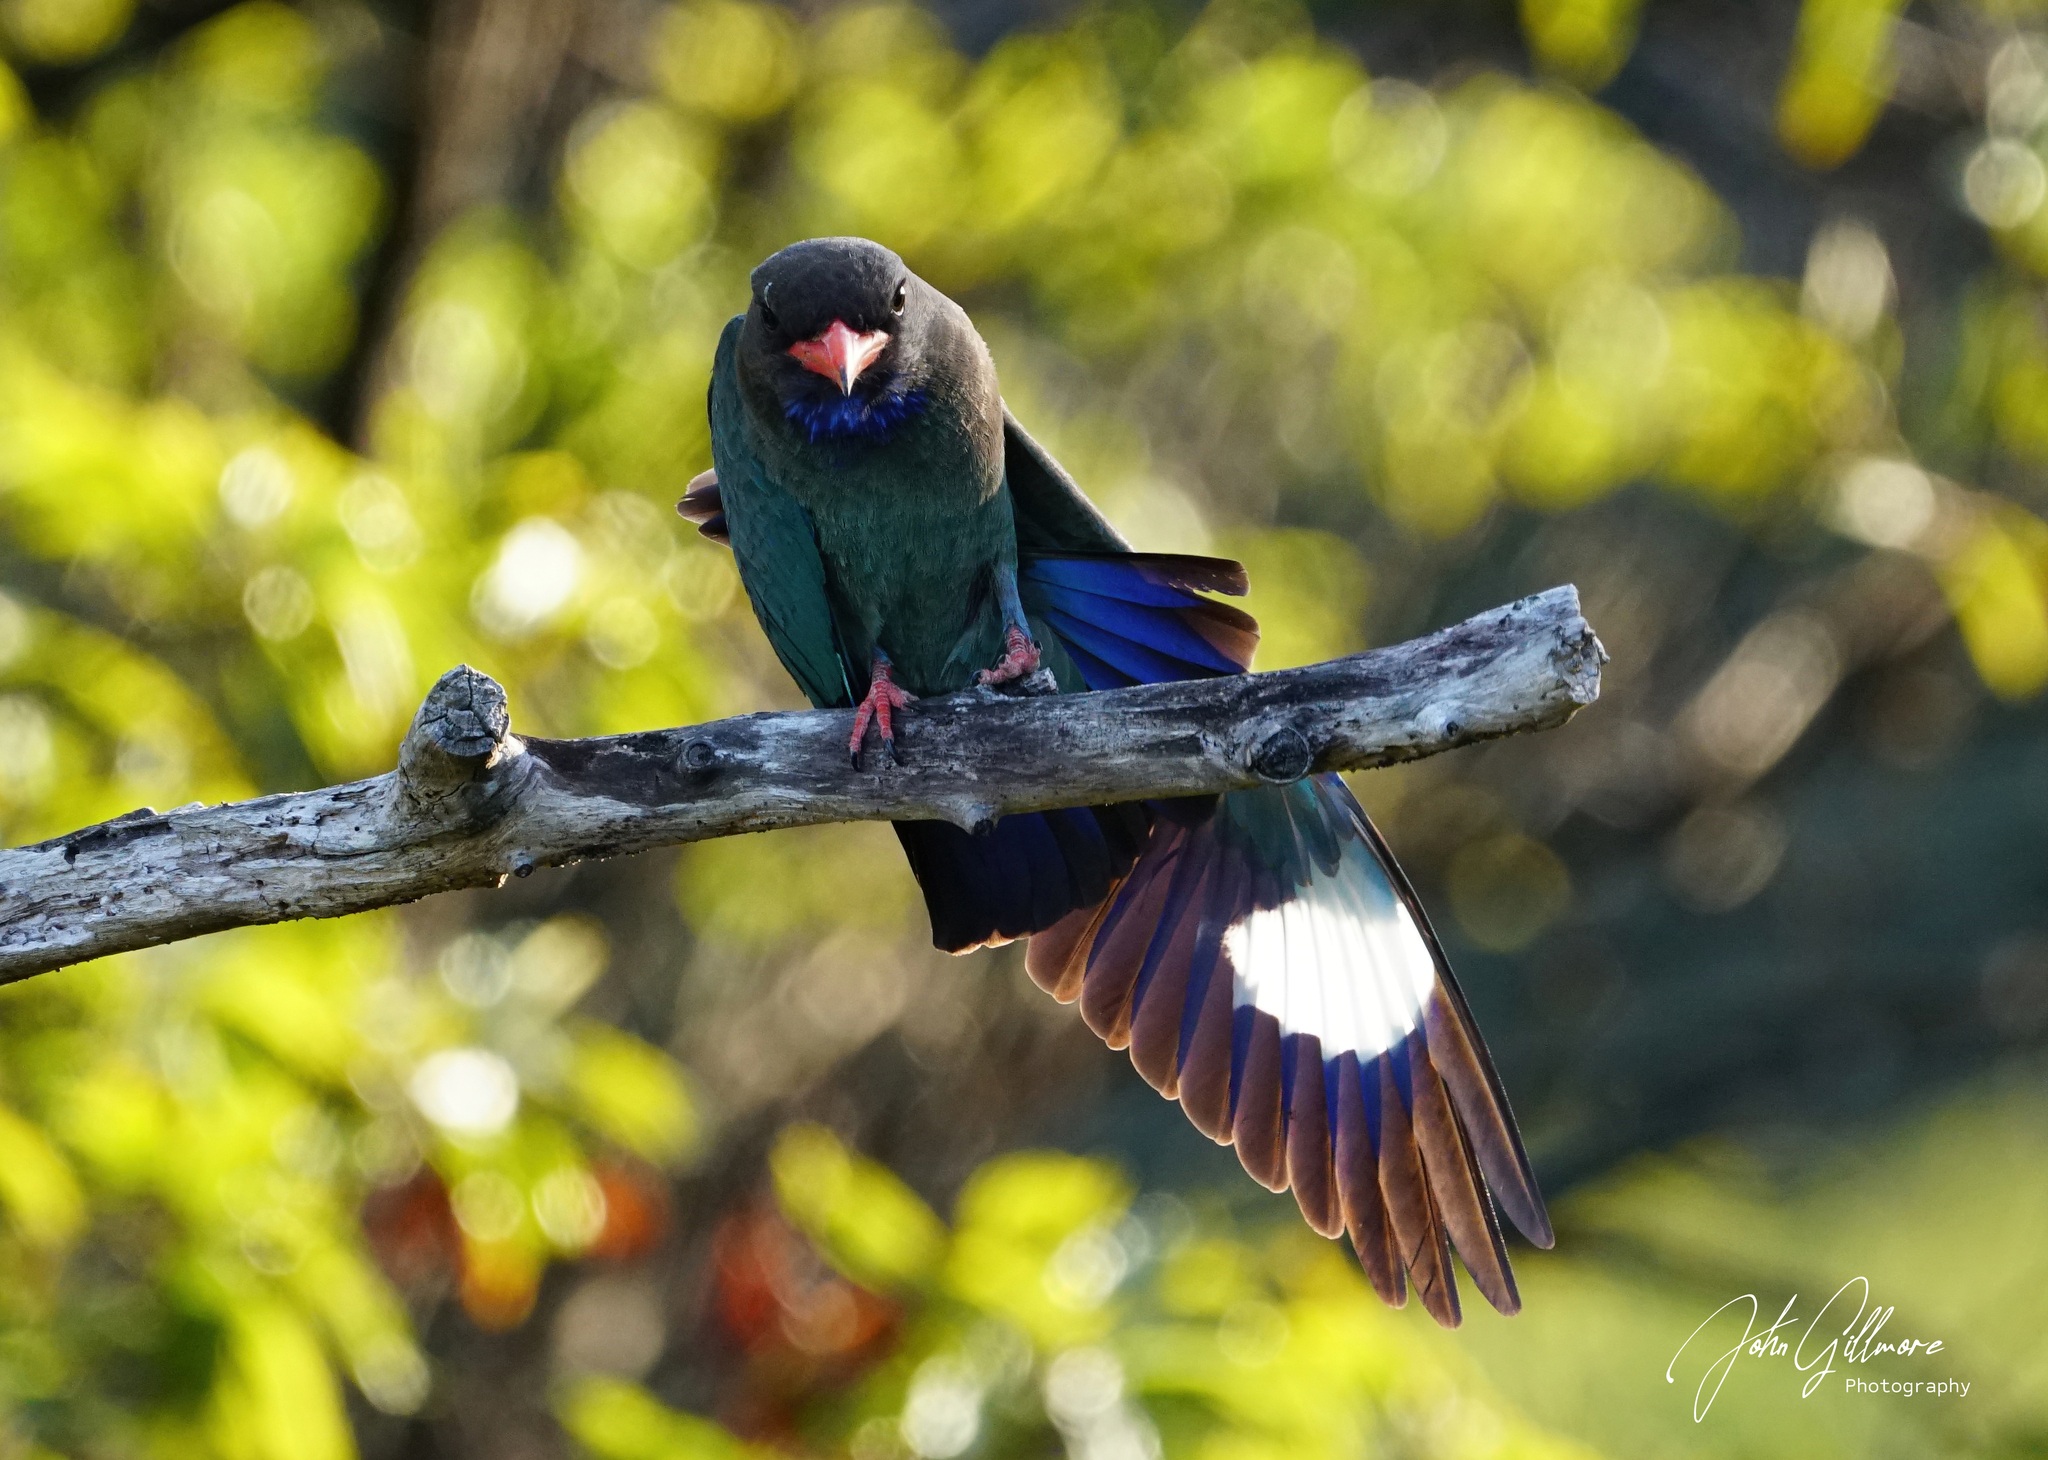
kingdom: Animalia
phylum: Chordata
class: Aves
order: Coraciiformes
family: Coraciidae
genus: Eurystomus
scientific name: Eurystomus orientalis
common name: Oriental dollarbird
